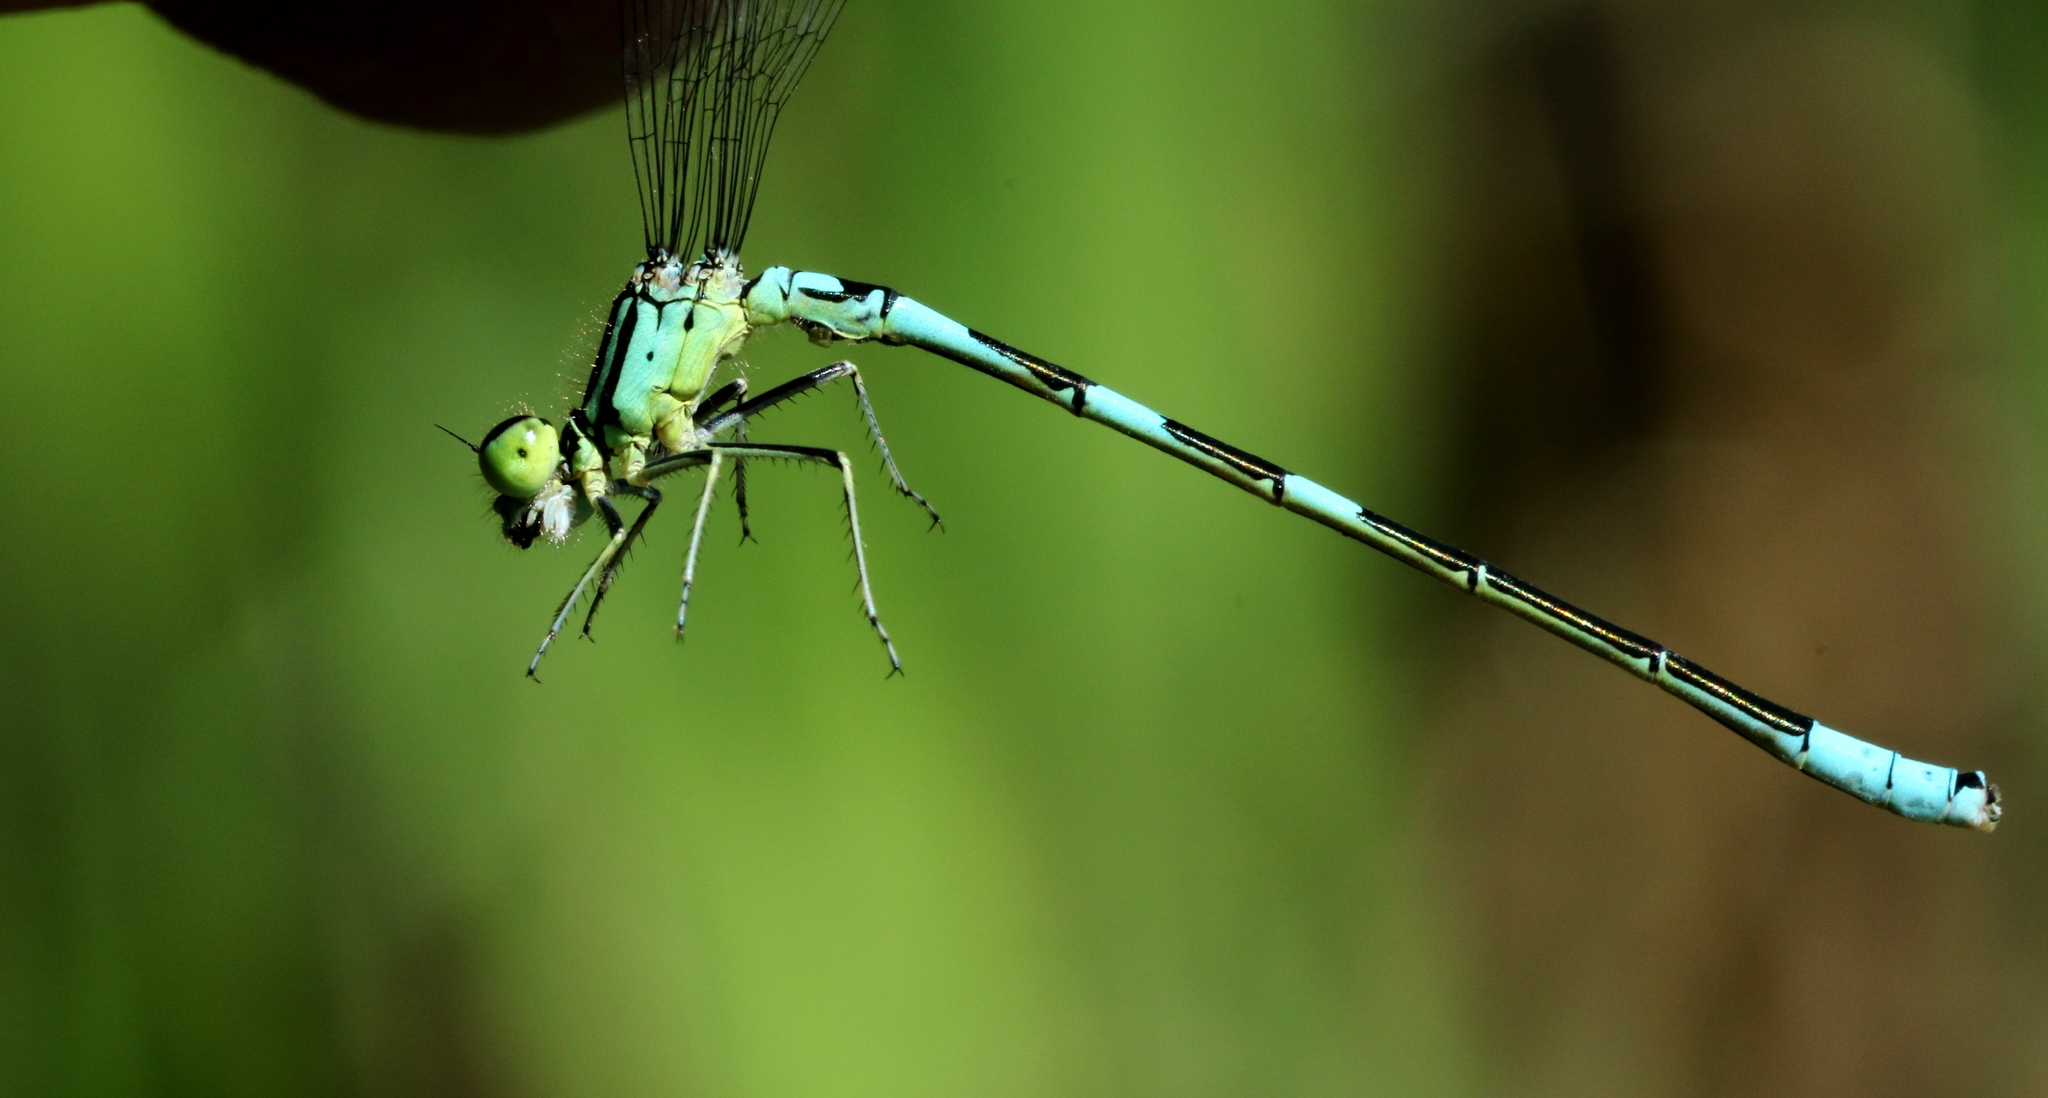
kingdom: Animalia
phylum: Arthropoda
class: Insecta
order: Odonata
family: Coenagrionidae
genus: Coenagrion
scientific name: Coenagrion resolutum
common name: Taiga bluet
